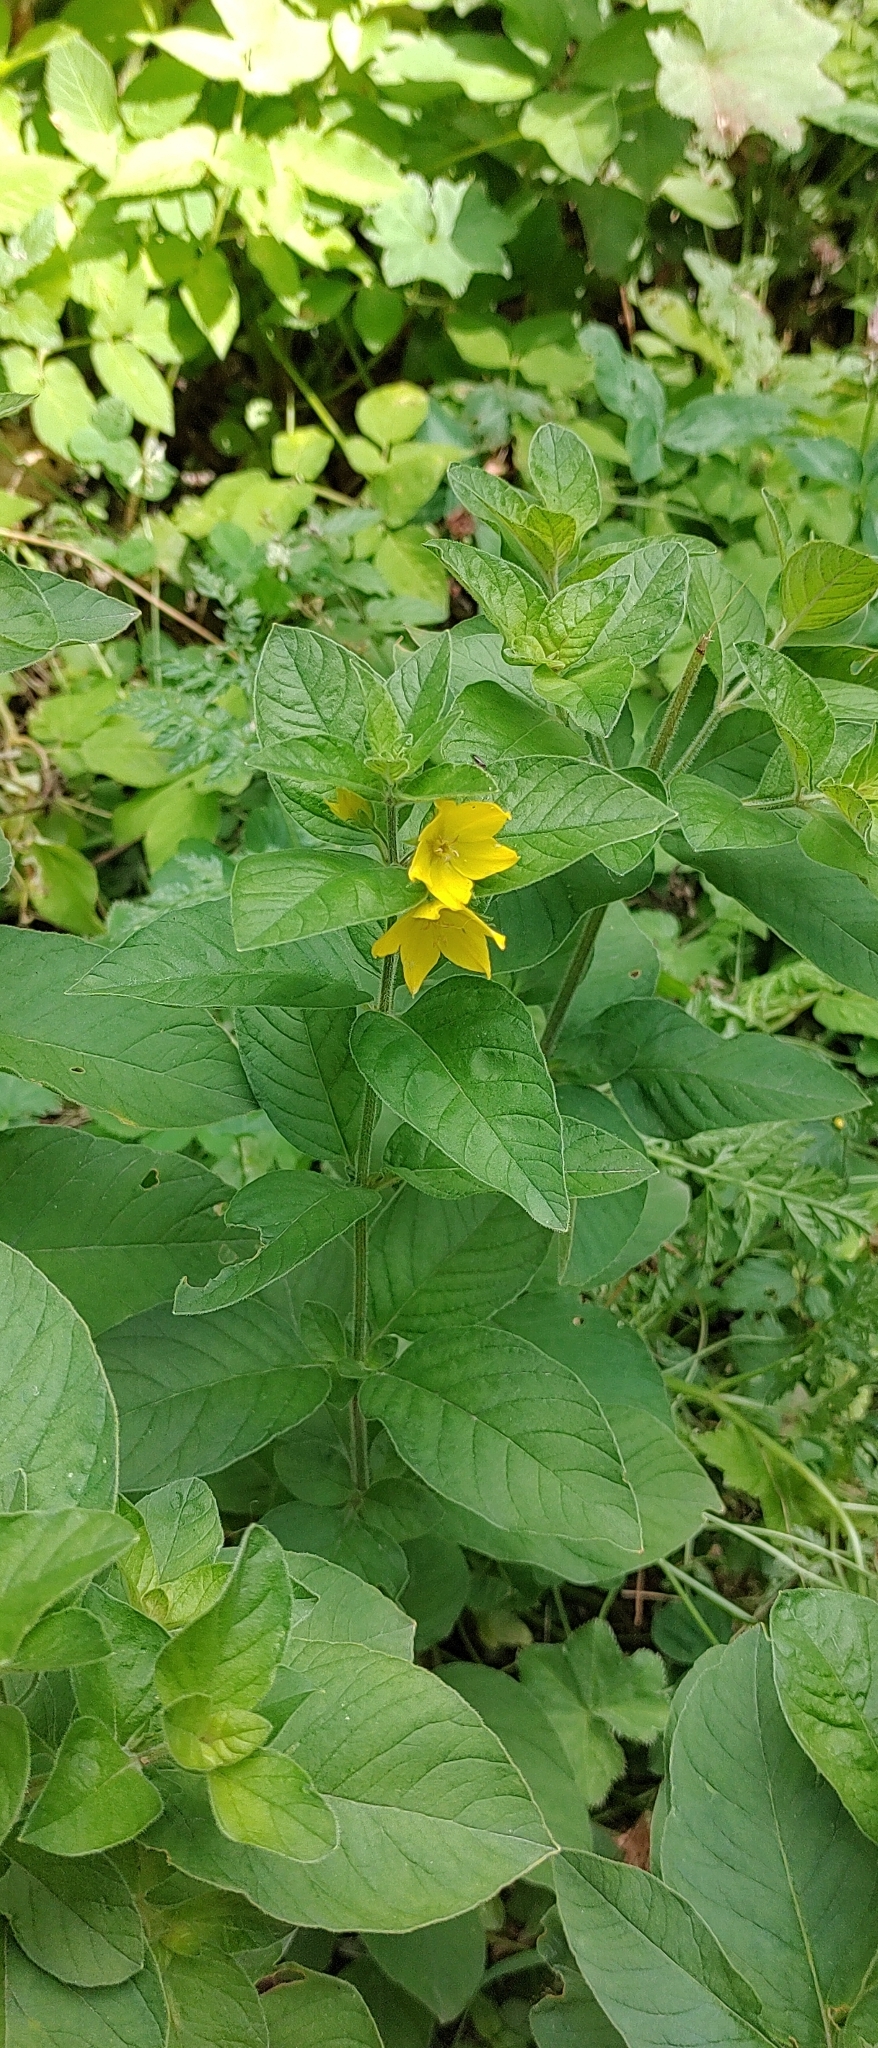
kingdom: Plantae
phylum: Tracheophyta
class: Magnoliopsida
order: Ericales
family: Primulaceae
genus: Lysimachia
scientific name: Lysimachia punctata
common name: Dotted loosestrife
